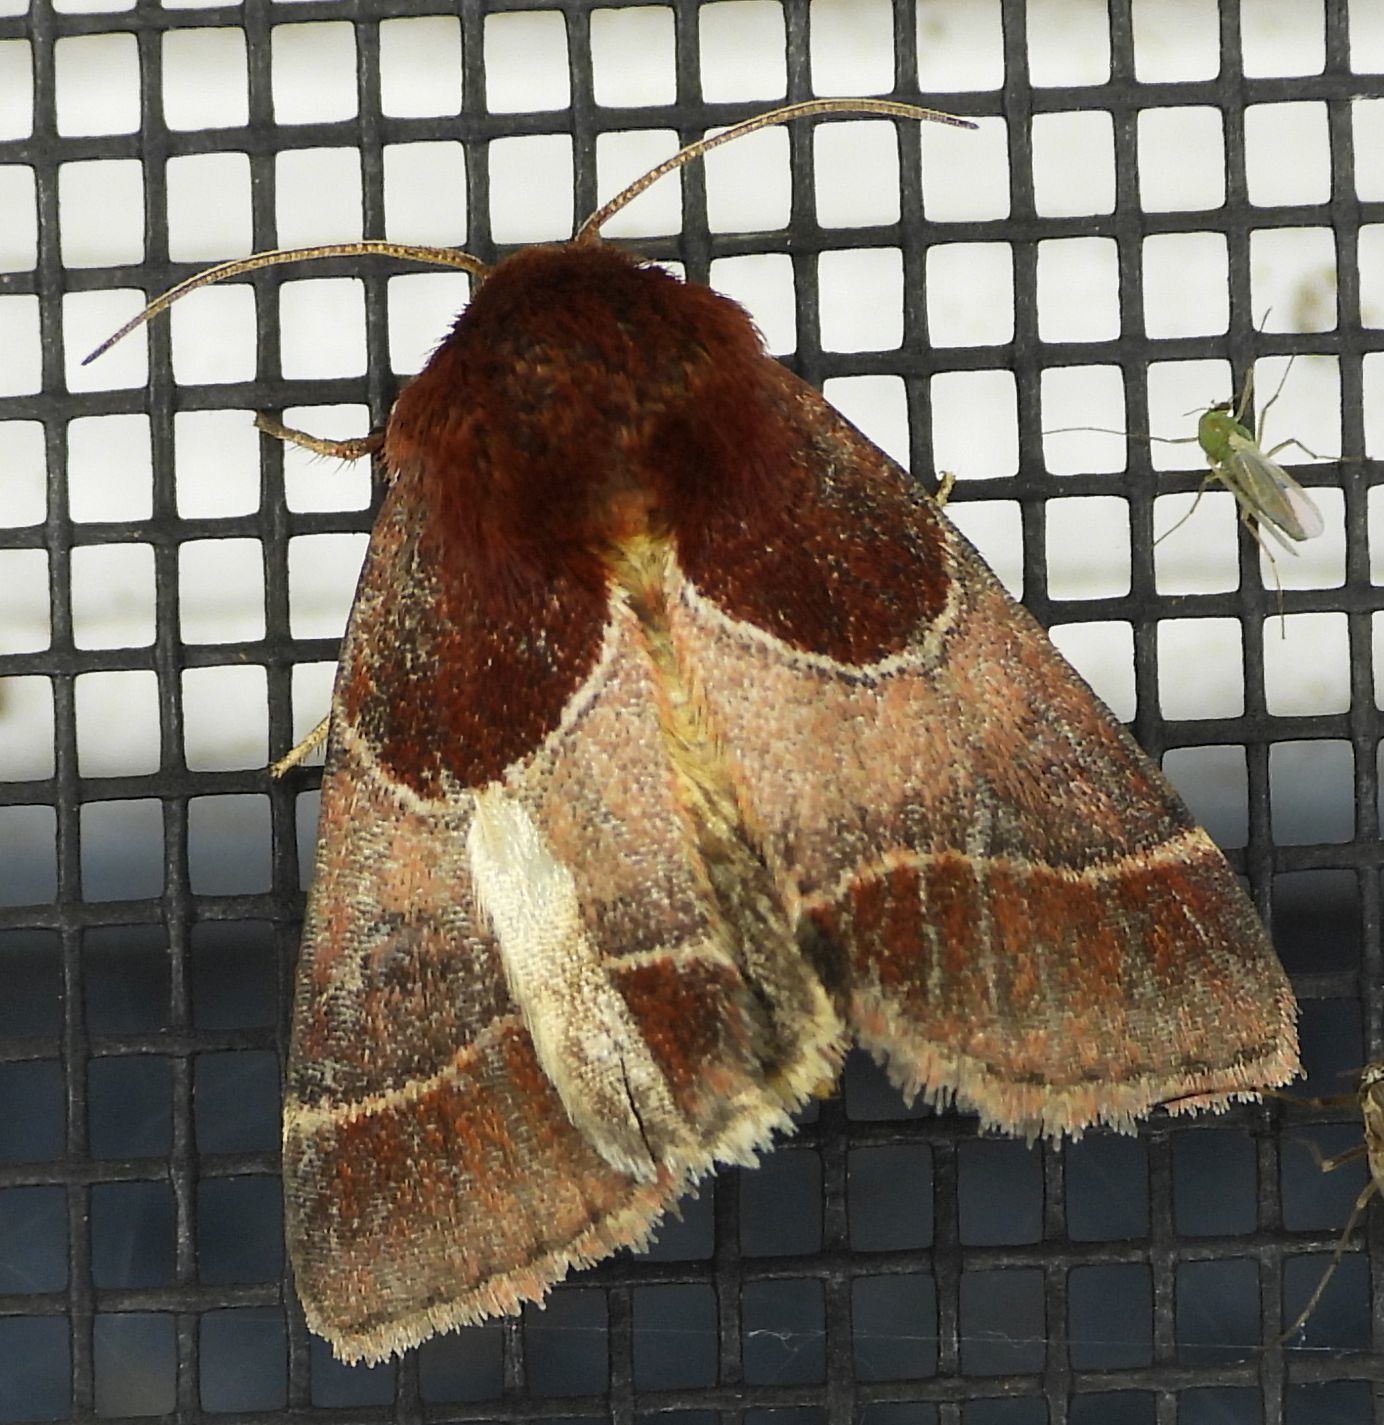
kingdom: Animalia
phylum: Arthropoda
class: Insecta
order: Lepidoptera
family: Noctuidae
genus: Schinia
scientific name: Schinia arcigera
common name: Arcigera flower moth
